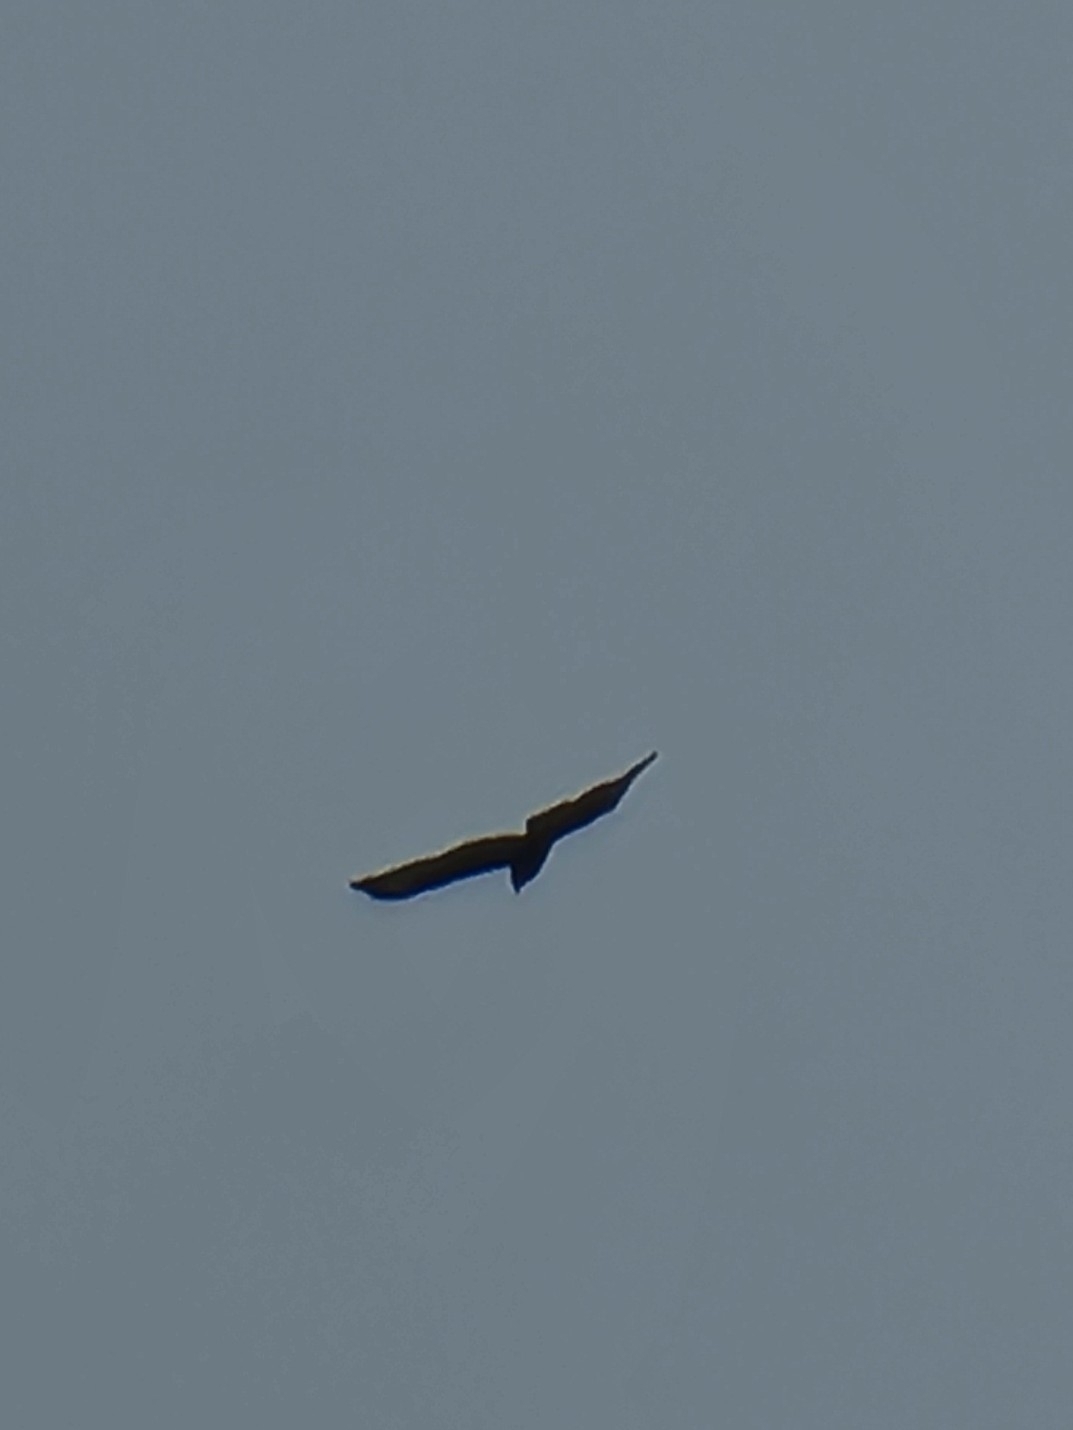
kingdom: Animalia
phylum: Chordata
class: Aves
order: Accipitriformes
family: Accipitridae
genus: Buteo
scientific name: Buteo buteo
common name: Common buzzard
